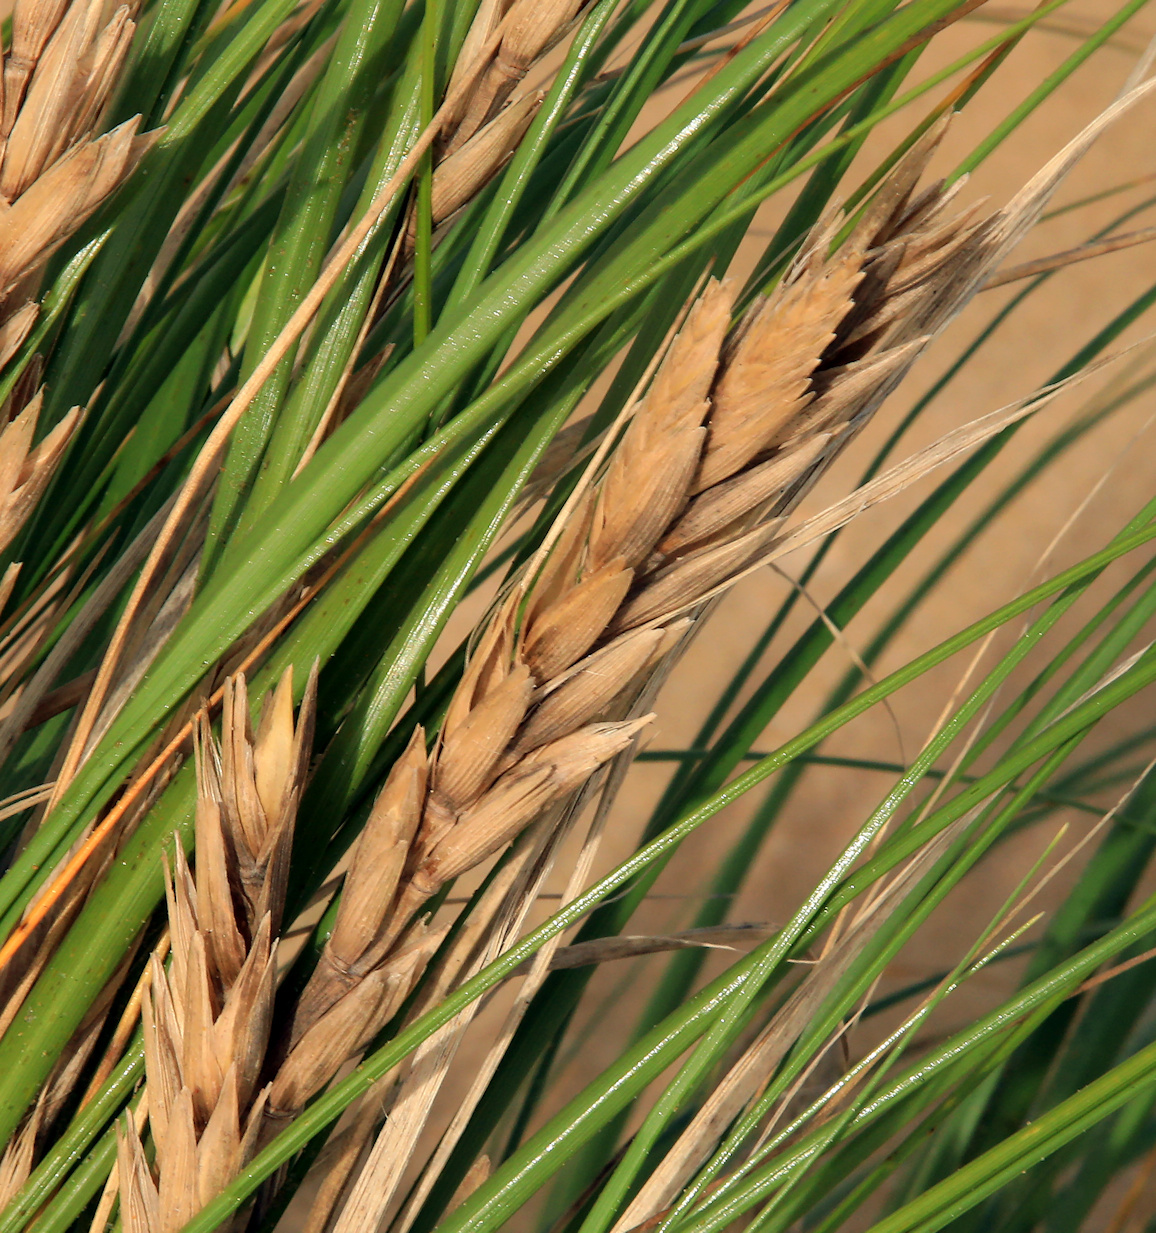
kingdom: Plantae
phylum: Tracheophyta
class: Liliopsida
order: Poales
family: Poaceae
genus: Thinopyrum
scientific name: Thinopyrum distichum
